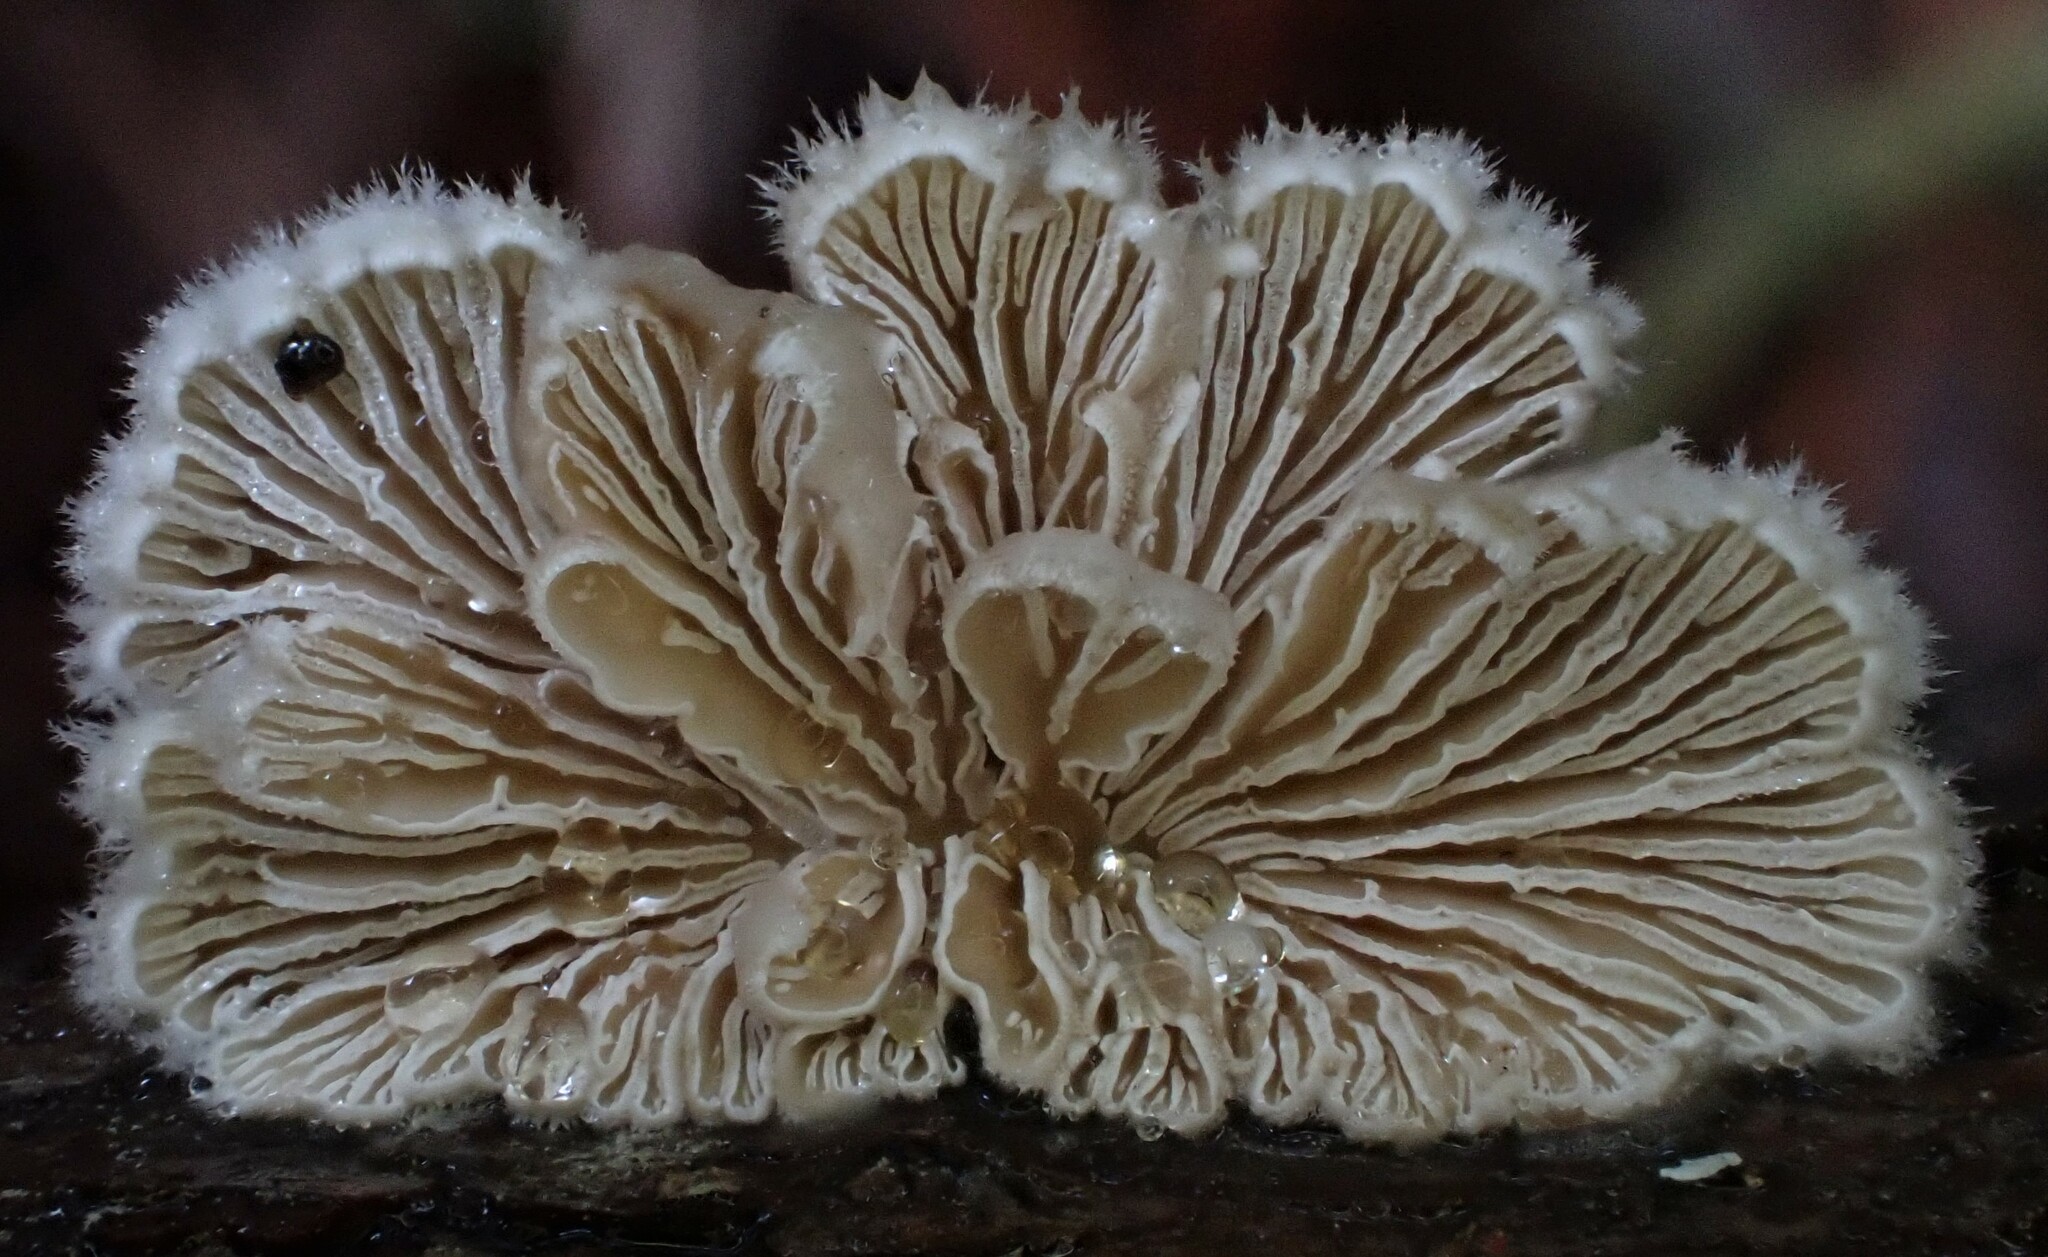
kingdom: Fungi
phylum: Basidiomycota
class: Agaricomycetes
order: Agaricales
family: Schizophyllaceae
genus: Schizophyllum
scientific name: Schizophyllum commune
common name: Common porecrust
